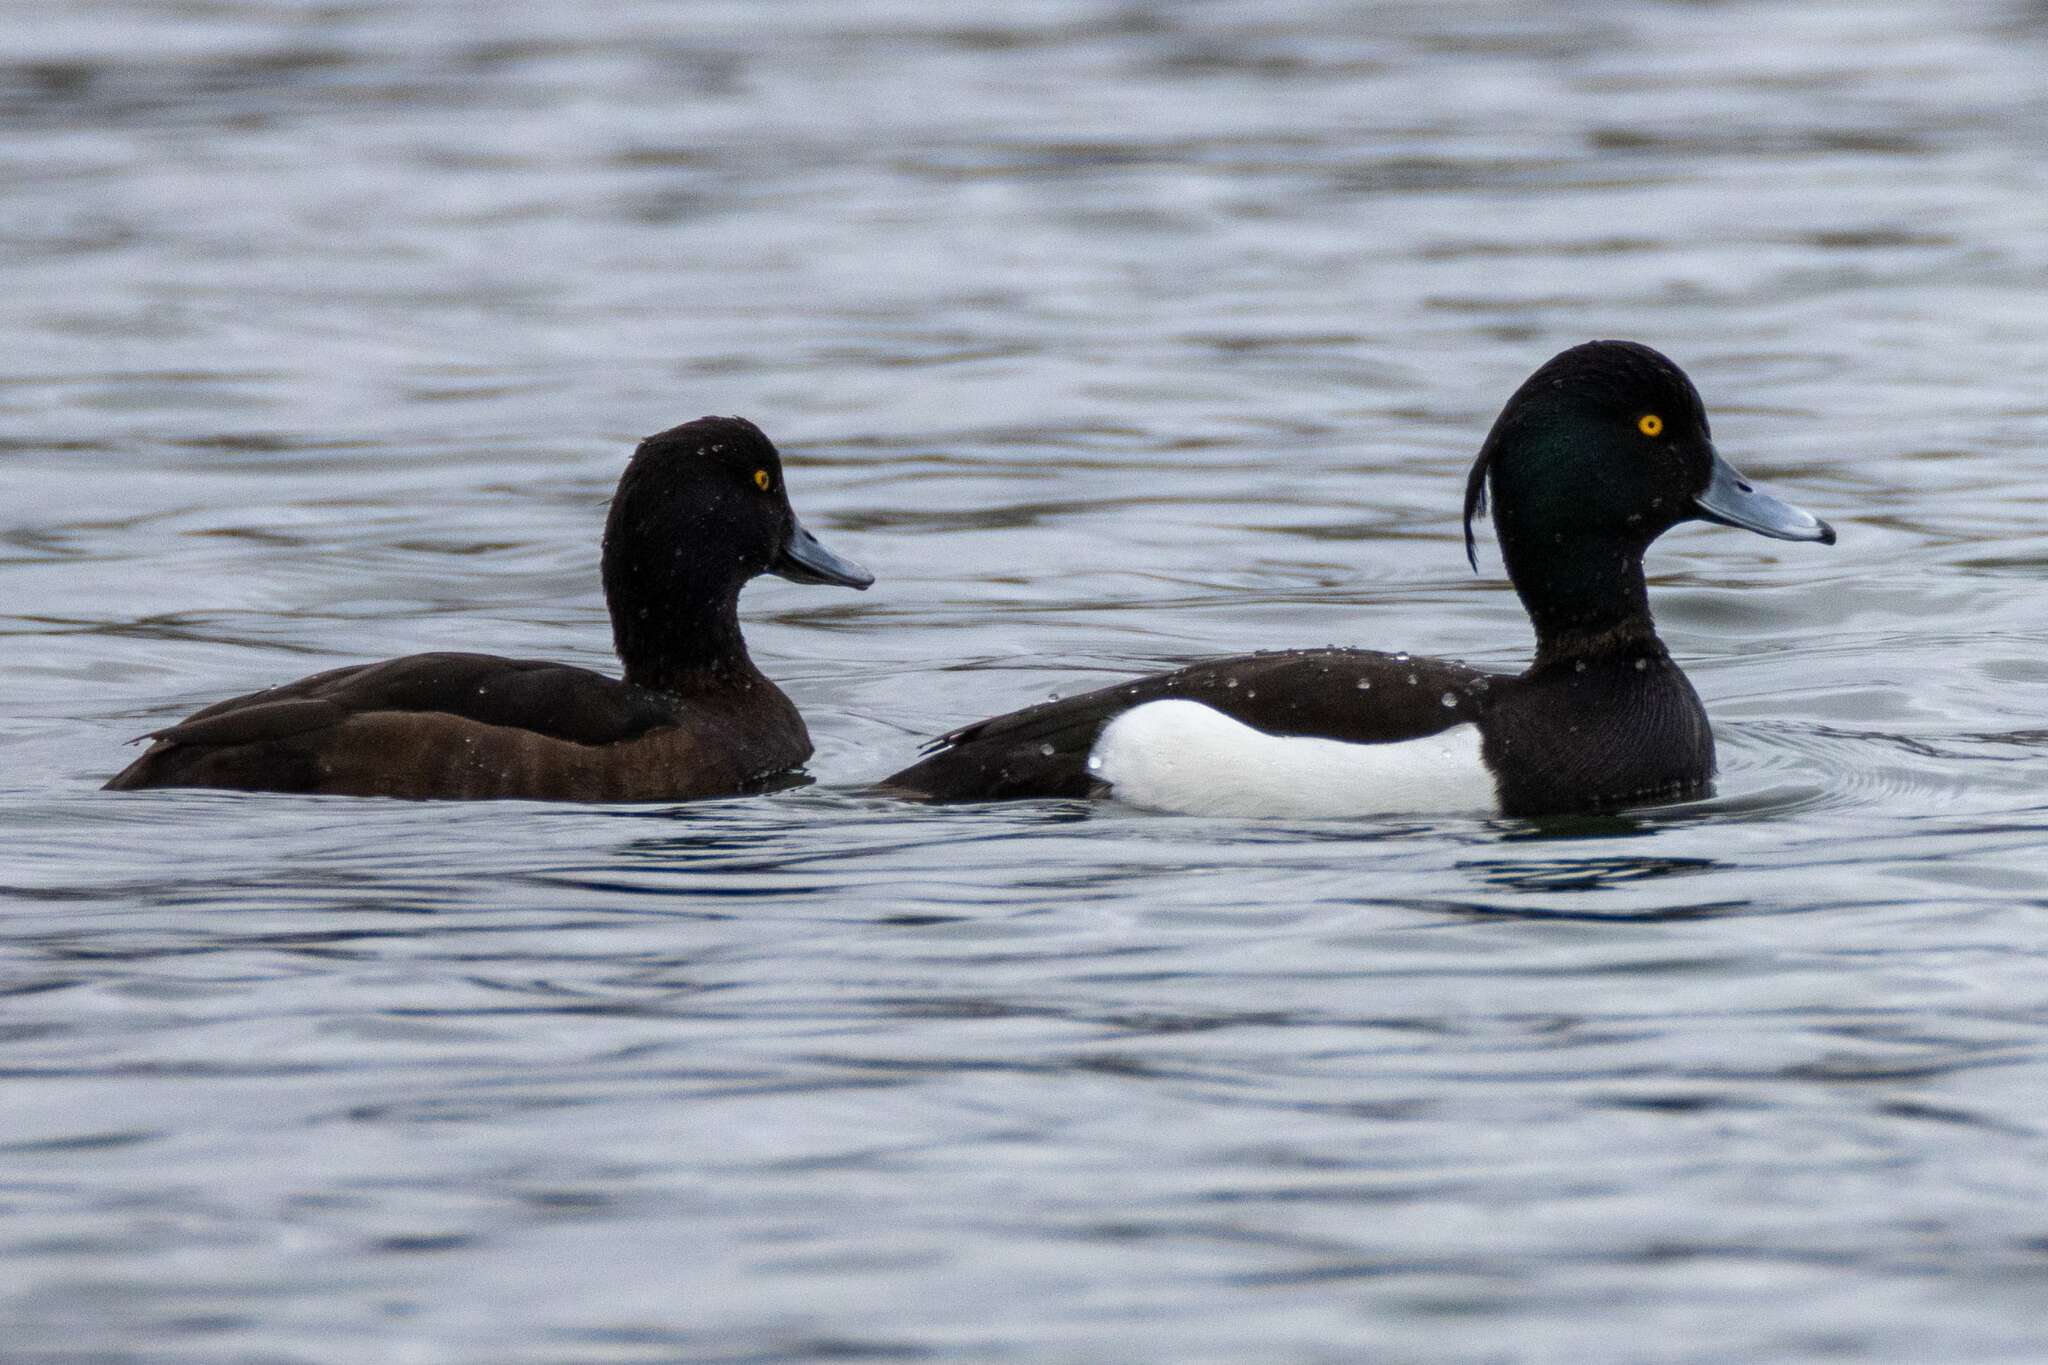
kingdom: Animalia
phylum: Chordata
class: Aves
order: Anseriformes
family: Anatidae
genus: Aythya
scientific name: Aythya fuligula
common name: Tufted duck
